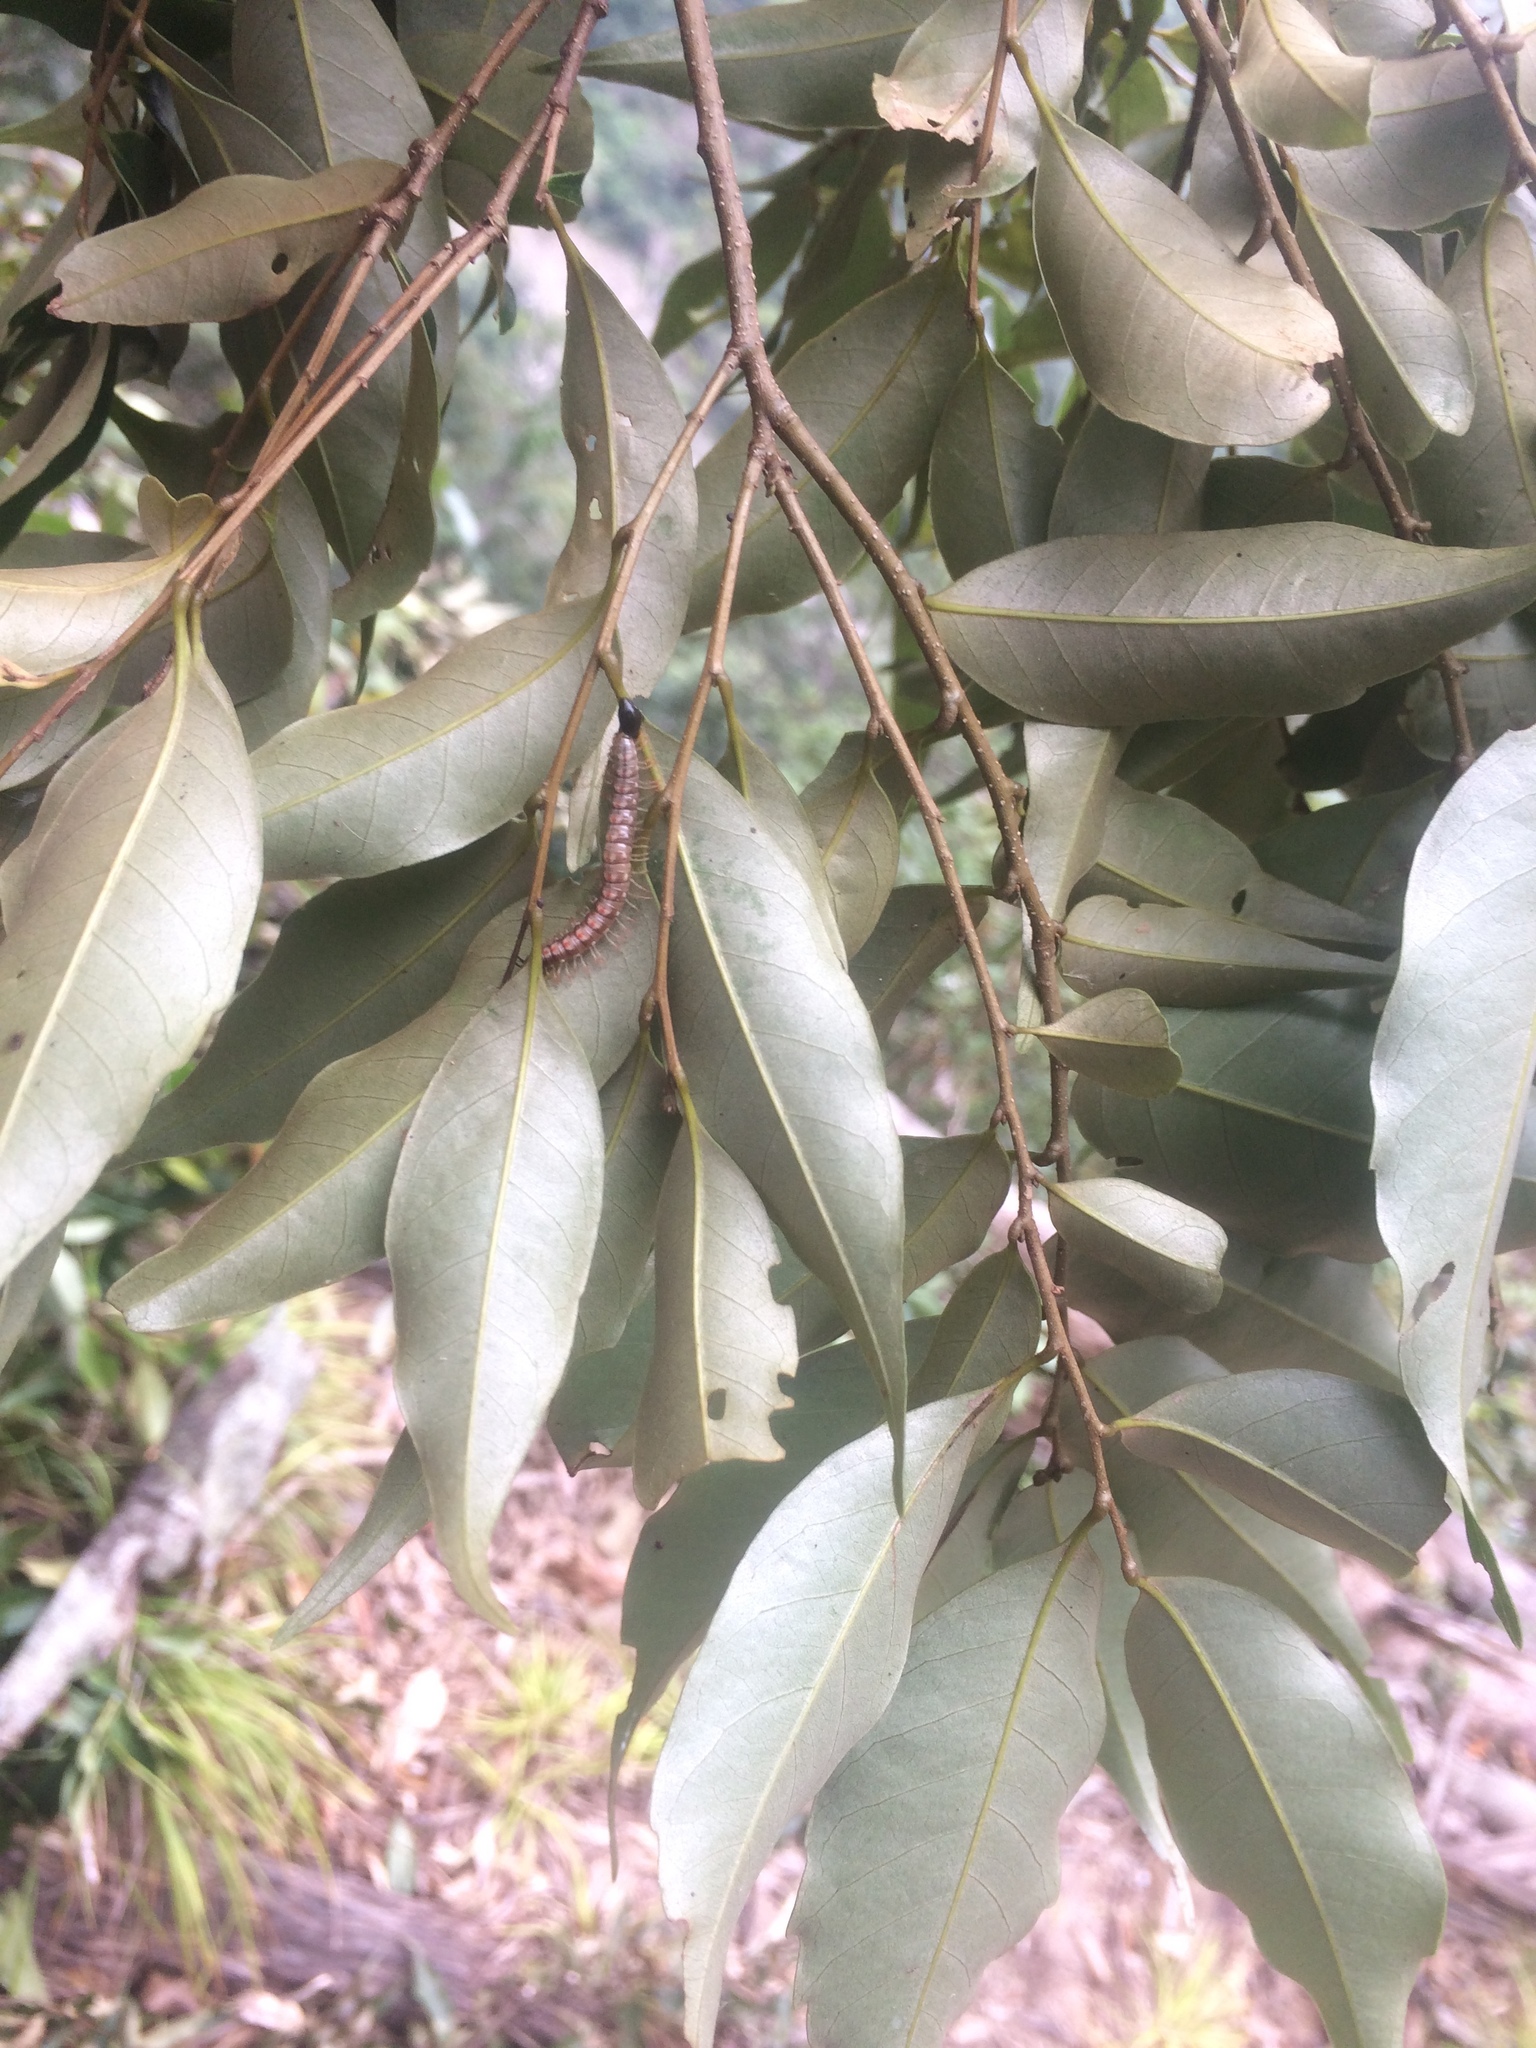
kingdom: Plantae
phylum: Tracheophyta
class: Magnoliopsida
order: Fagales
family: Fagaceae
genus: Castanopsis
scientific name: Castanopsis carlesii
